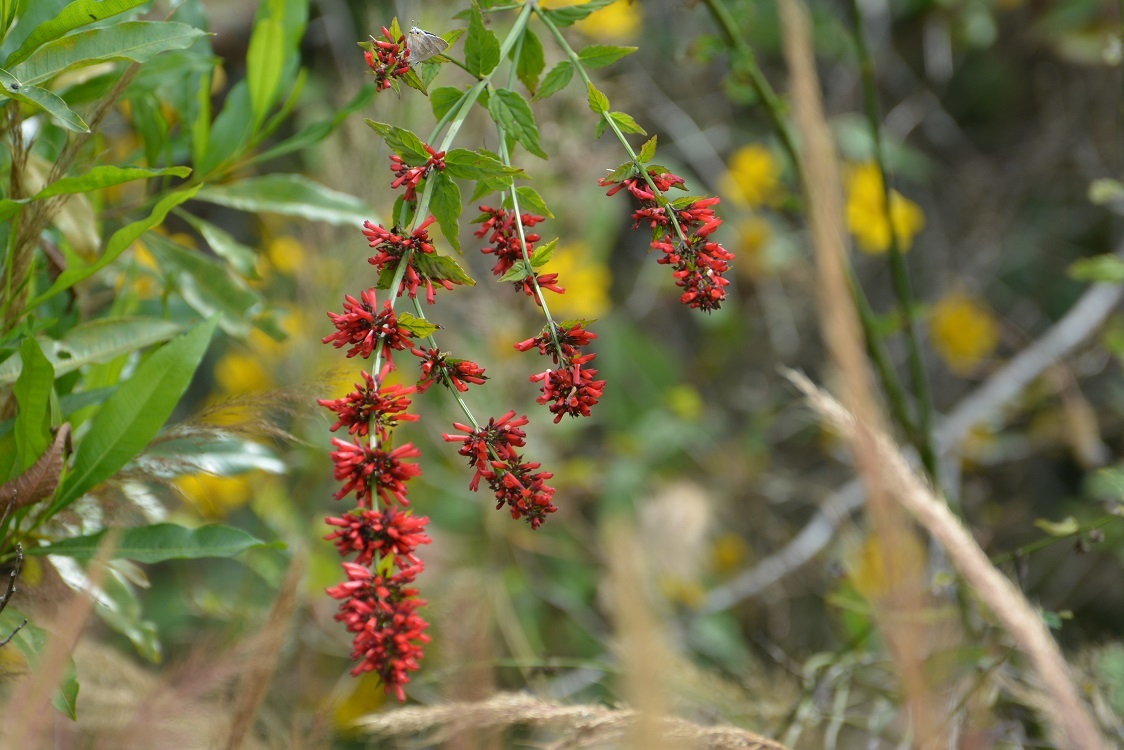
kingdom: Plantae
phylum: Tracheophyta
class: Magnoliopsida
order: Lamiales
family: Plantaginaceae
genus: Russelia
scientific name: Russelia verticillata
